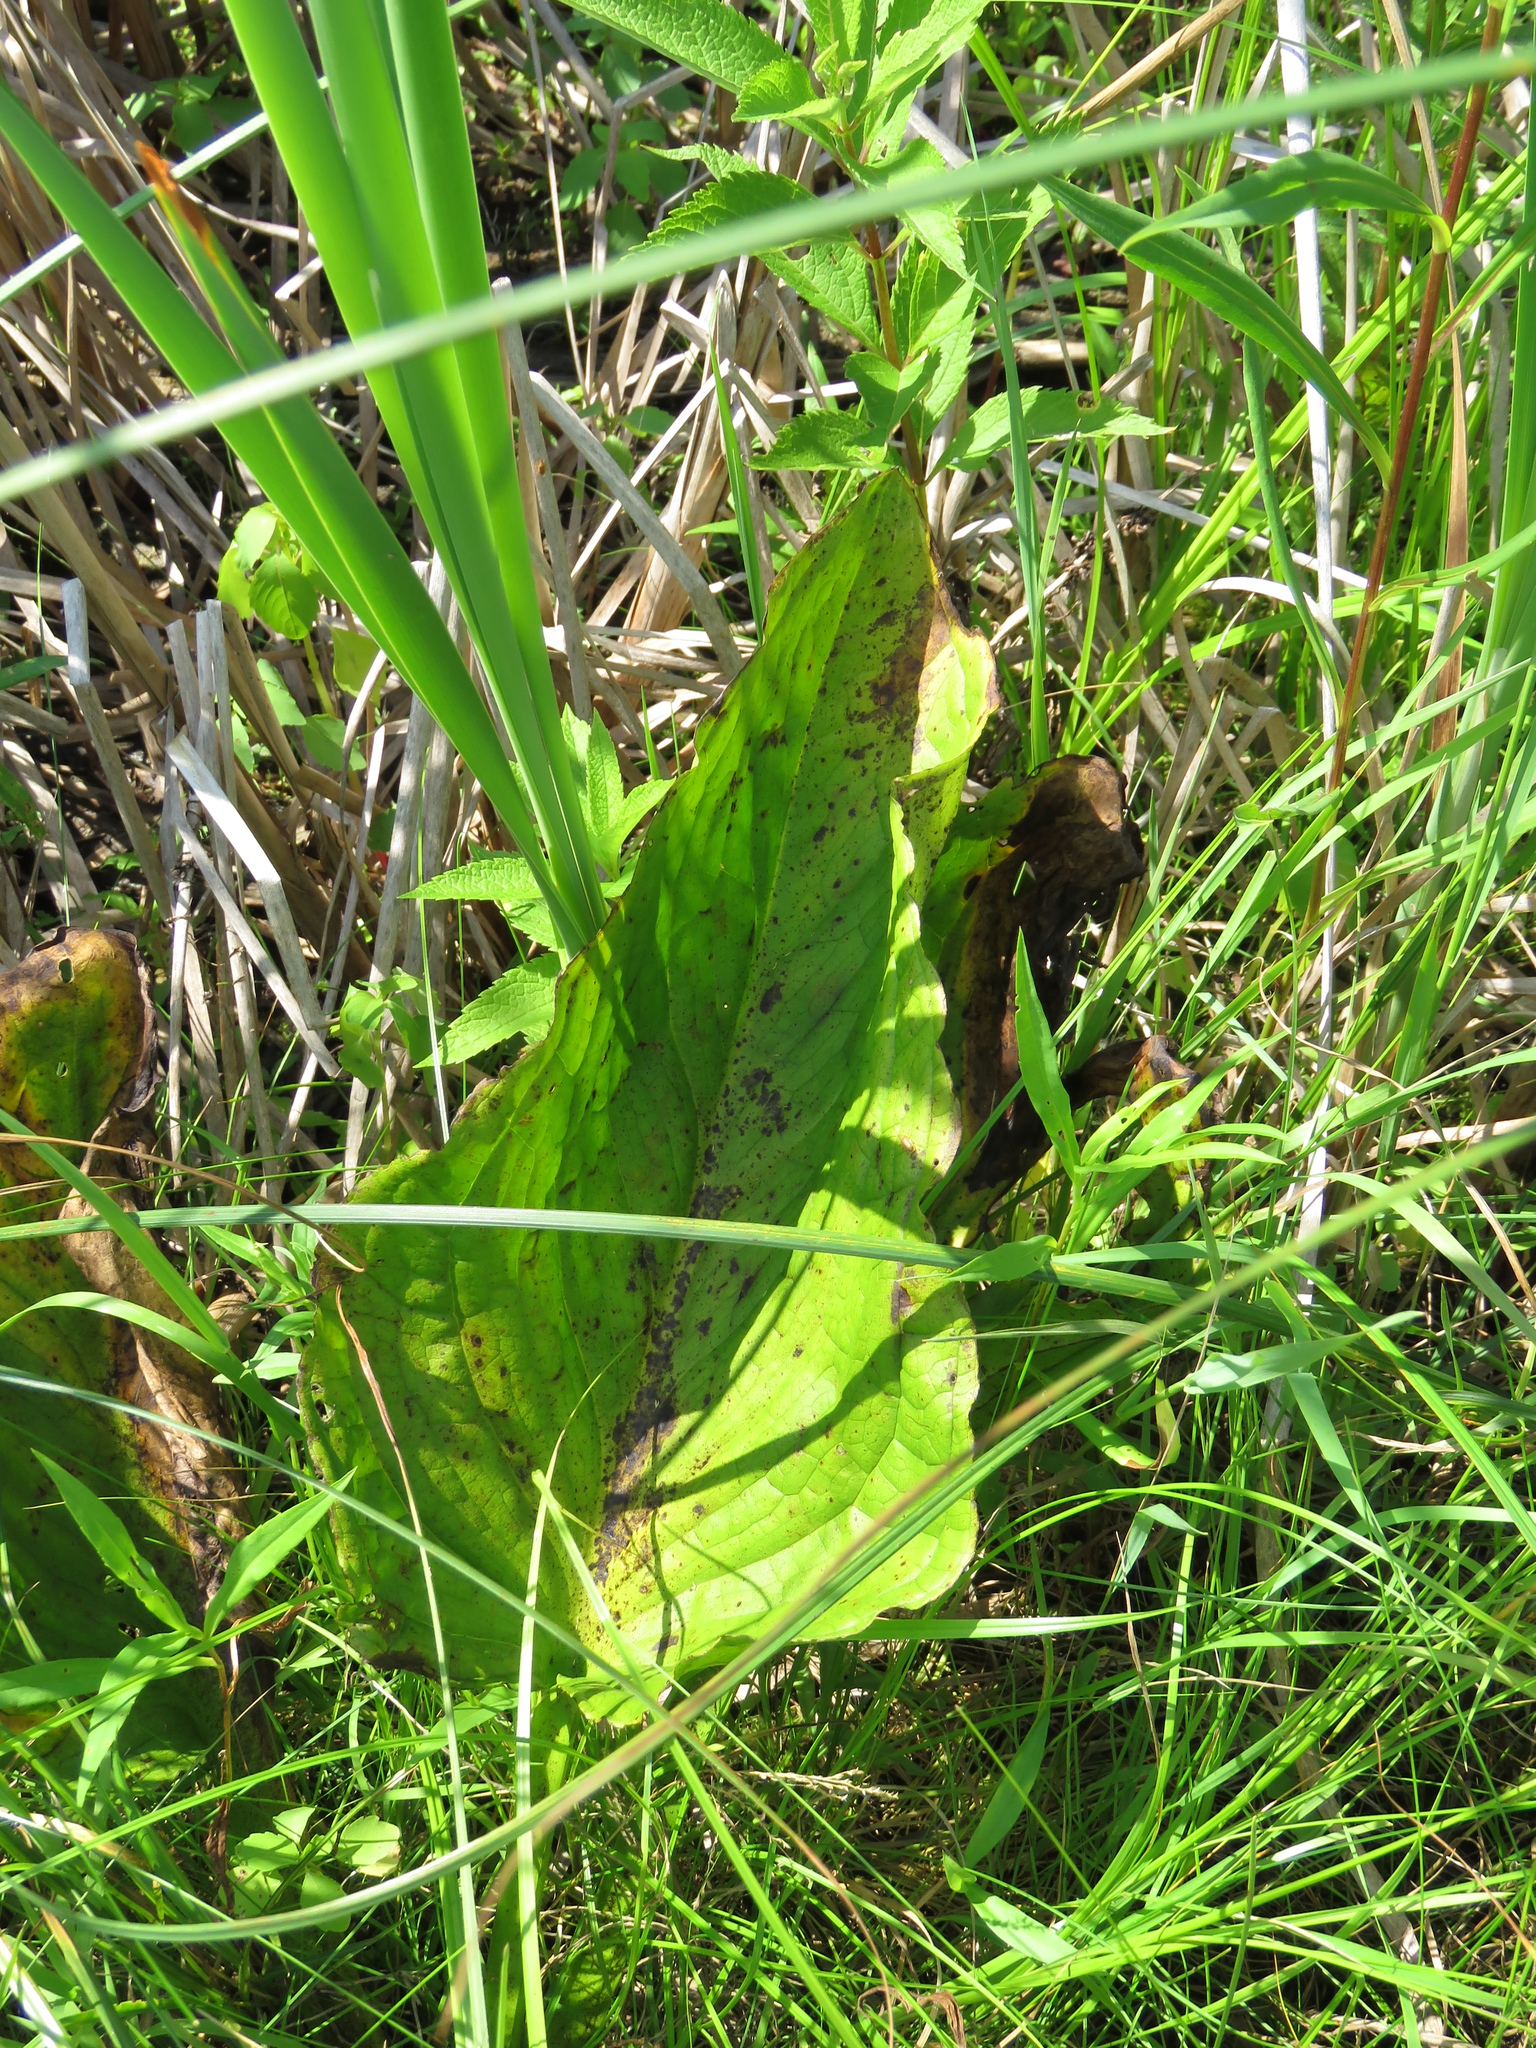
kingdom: Plantae
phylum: Tracheophyta
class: Liliopsida
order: Alismatales
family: Araceae
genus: Symplocarpus
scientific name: Symplocarpus foetidus
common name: Eastern skunk cabbage
